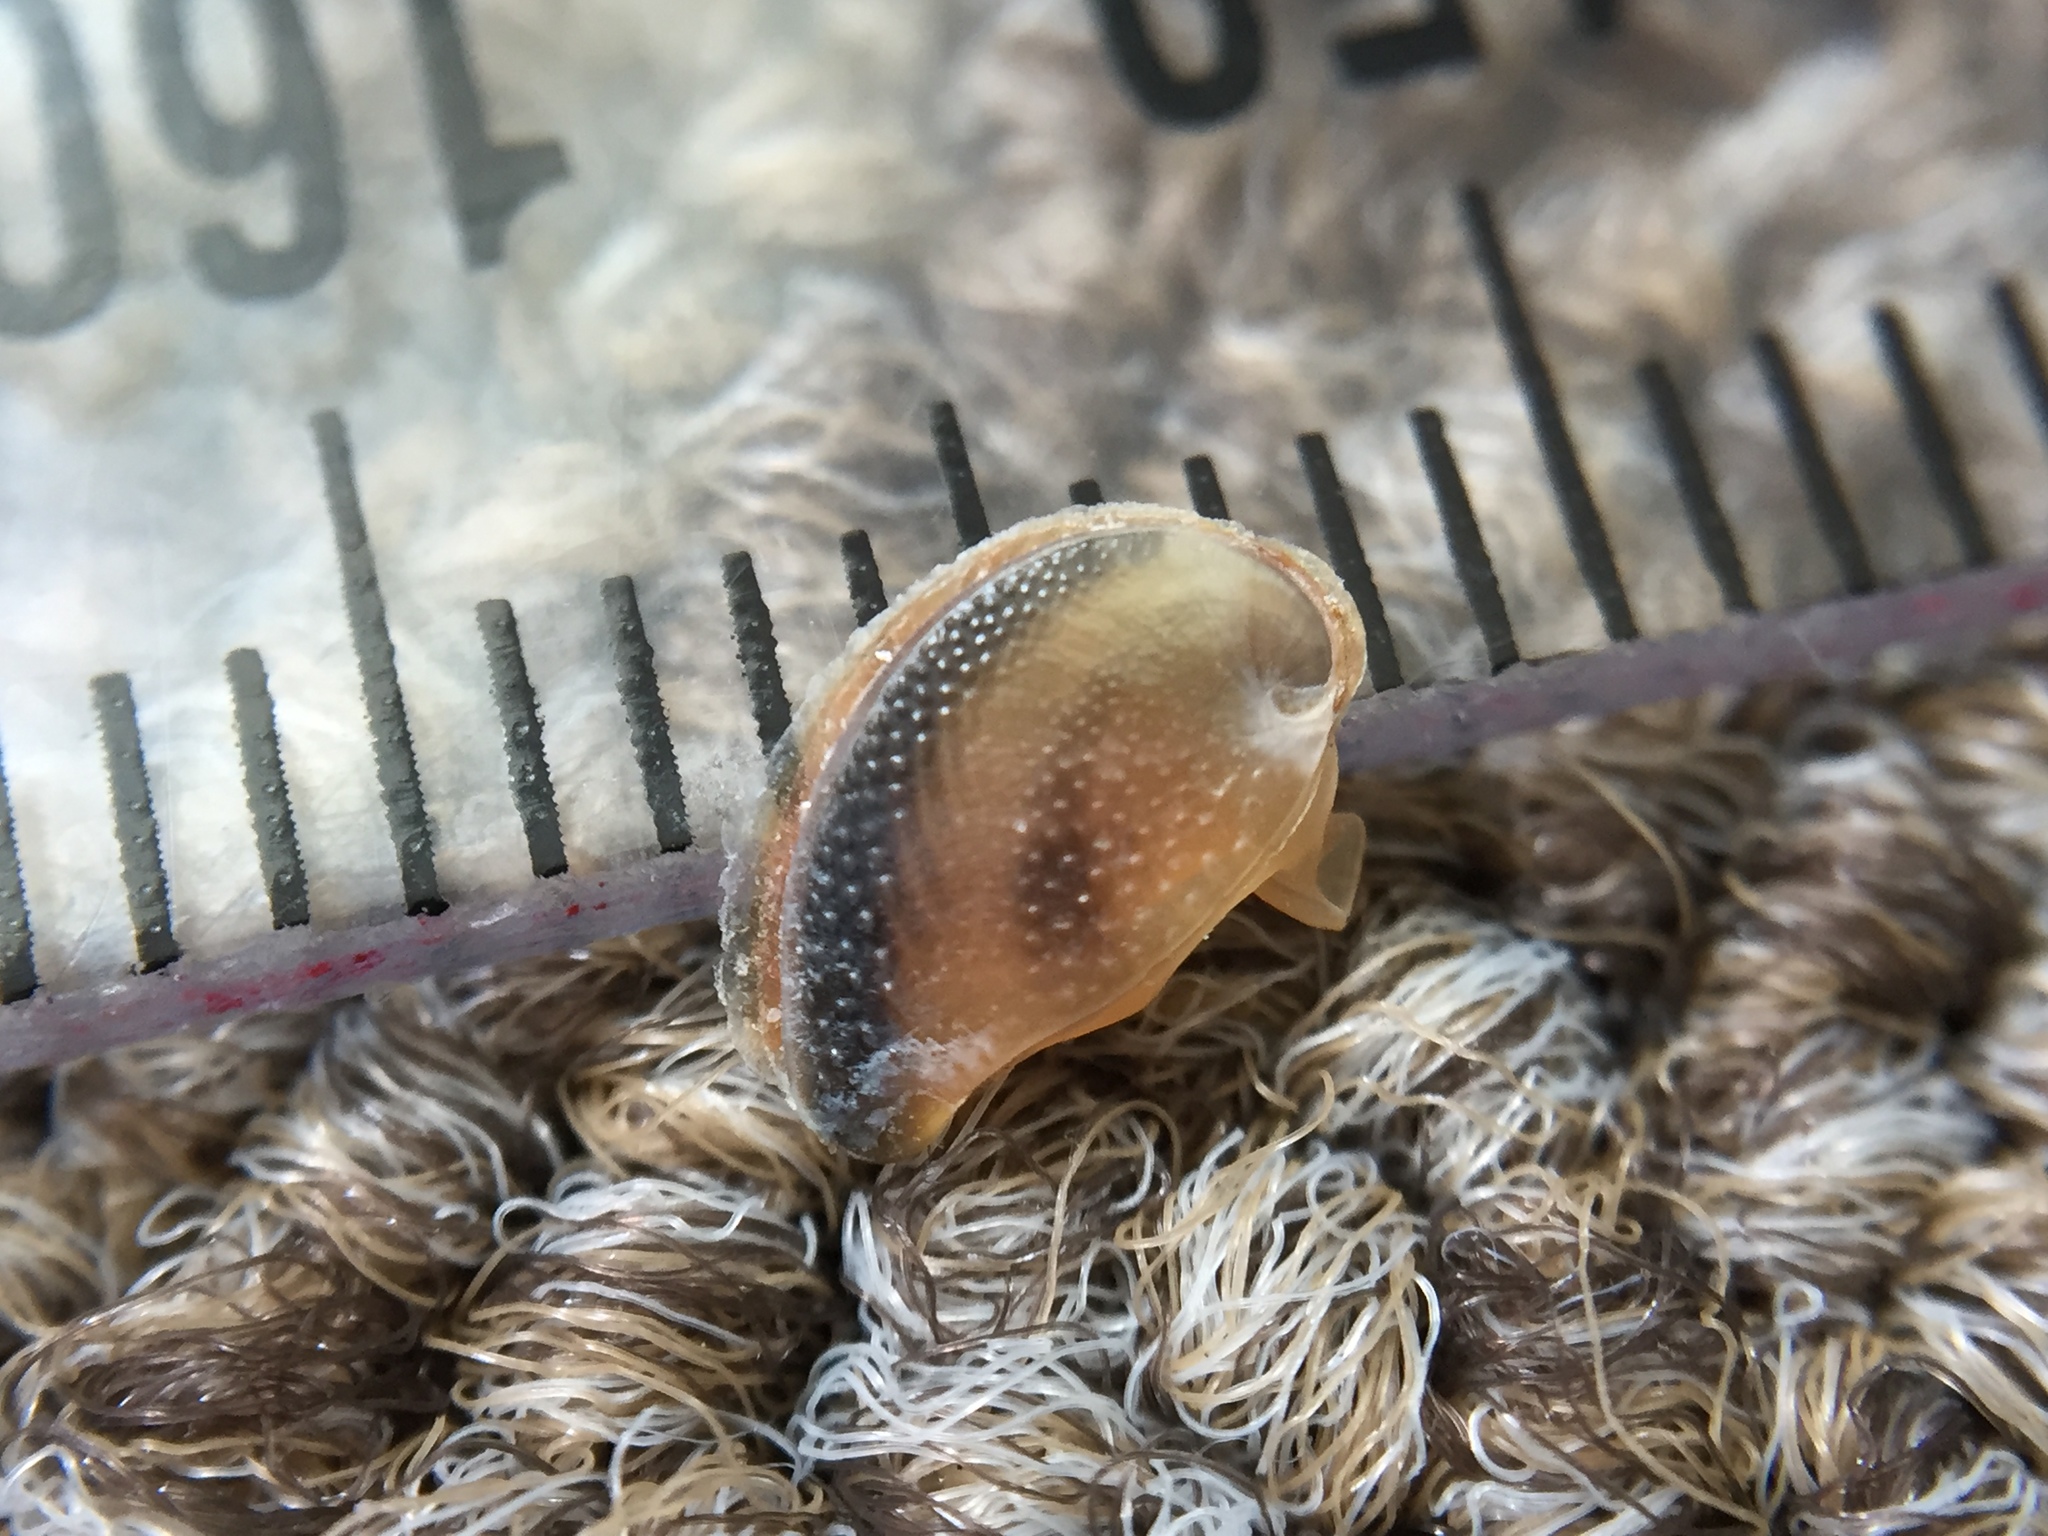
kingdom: Animalia
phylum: Mollusca
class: Gastropoda
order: Cycloneritida
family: Neritidae
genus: Nerita
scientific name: Nerita melanotragus
